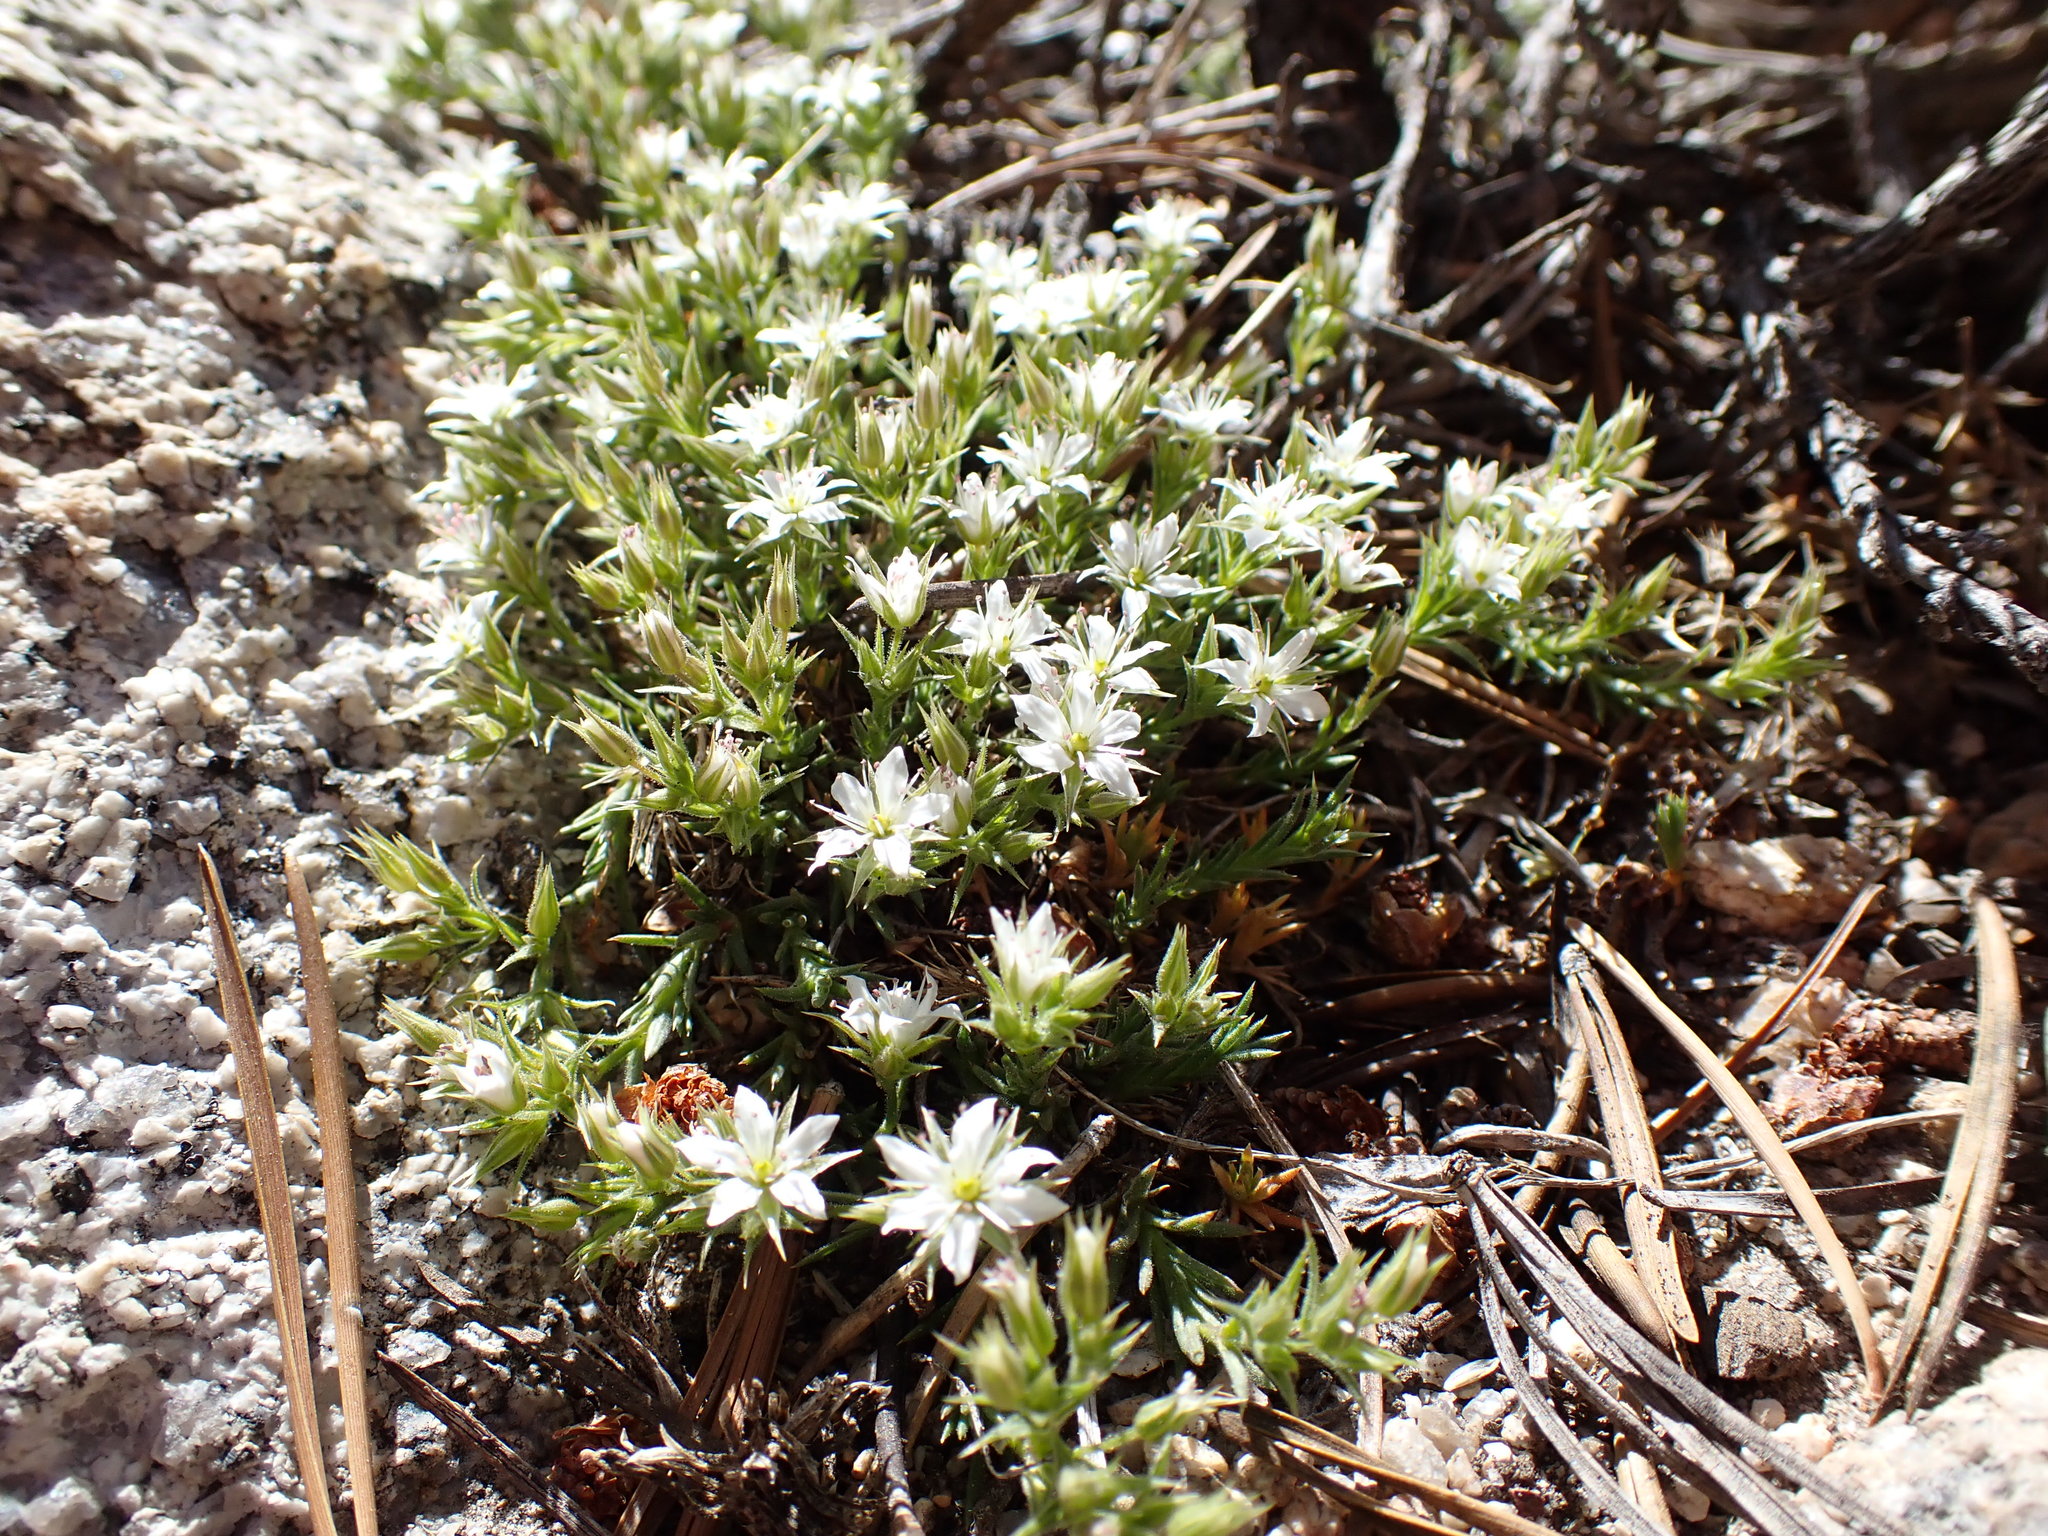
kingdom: Plantae
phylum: Tracheophyta
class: Magnoliopsida
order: Caryophyllales
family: Caryophyllaceae
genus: Sabulina
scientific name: Sabulina nuttallii
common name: Nuttall's stitchwort
